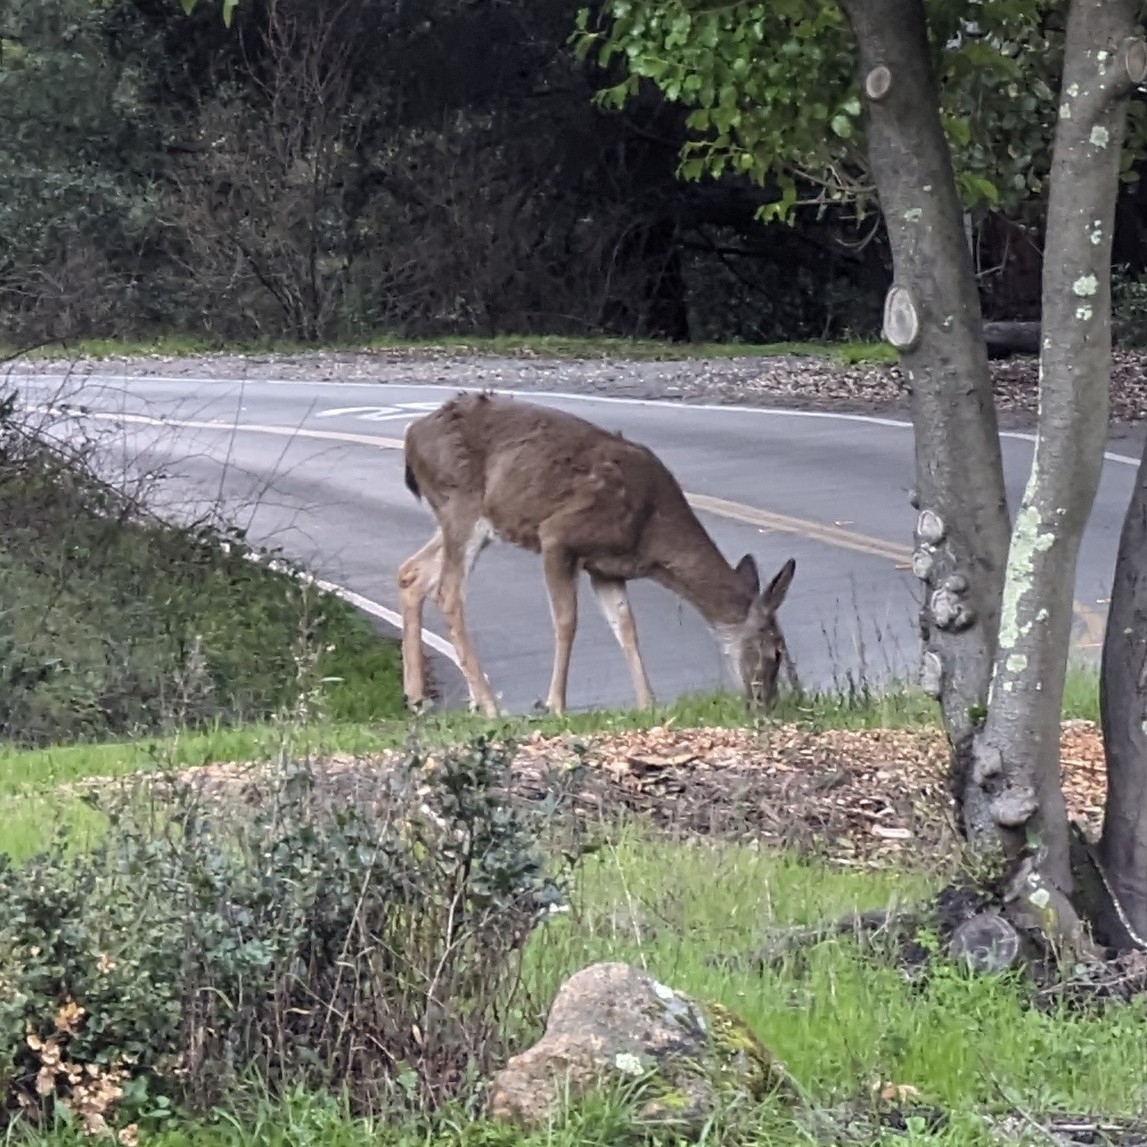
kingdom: Animalia
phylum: Chordata
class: Mammalia
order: Artiodactyla
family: Cervidae
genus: Odocoileus
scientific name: Odocoileus hemionus
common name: Mule deer
